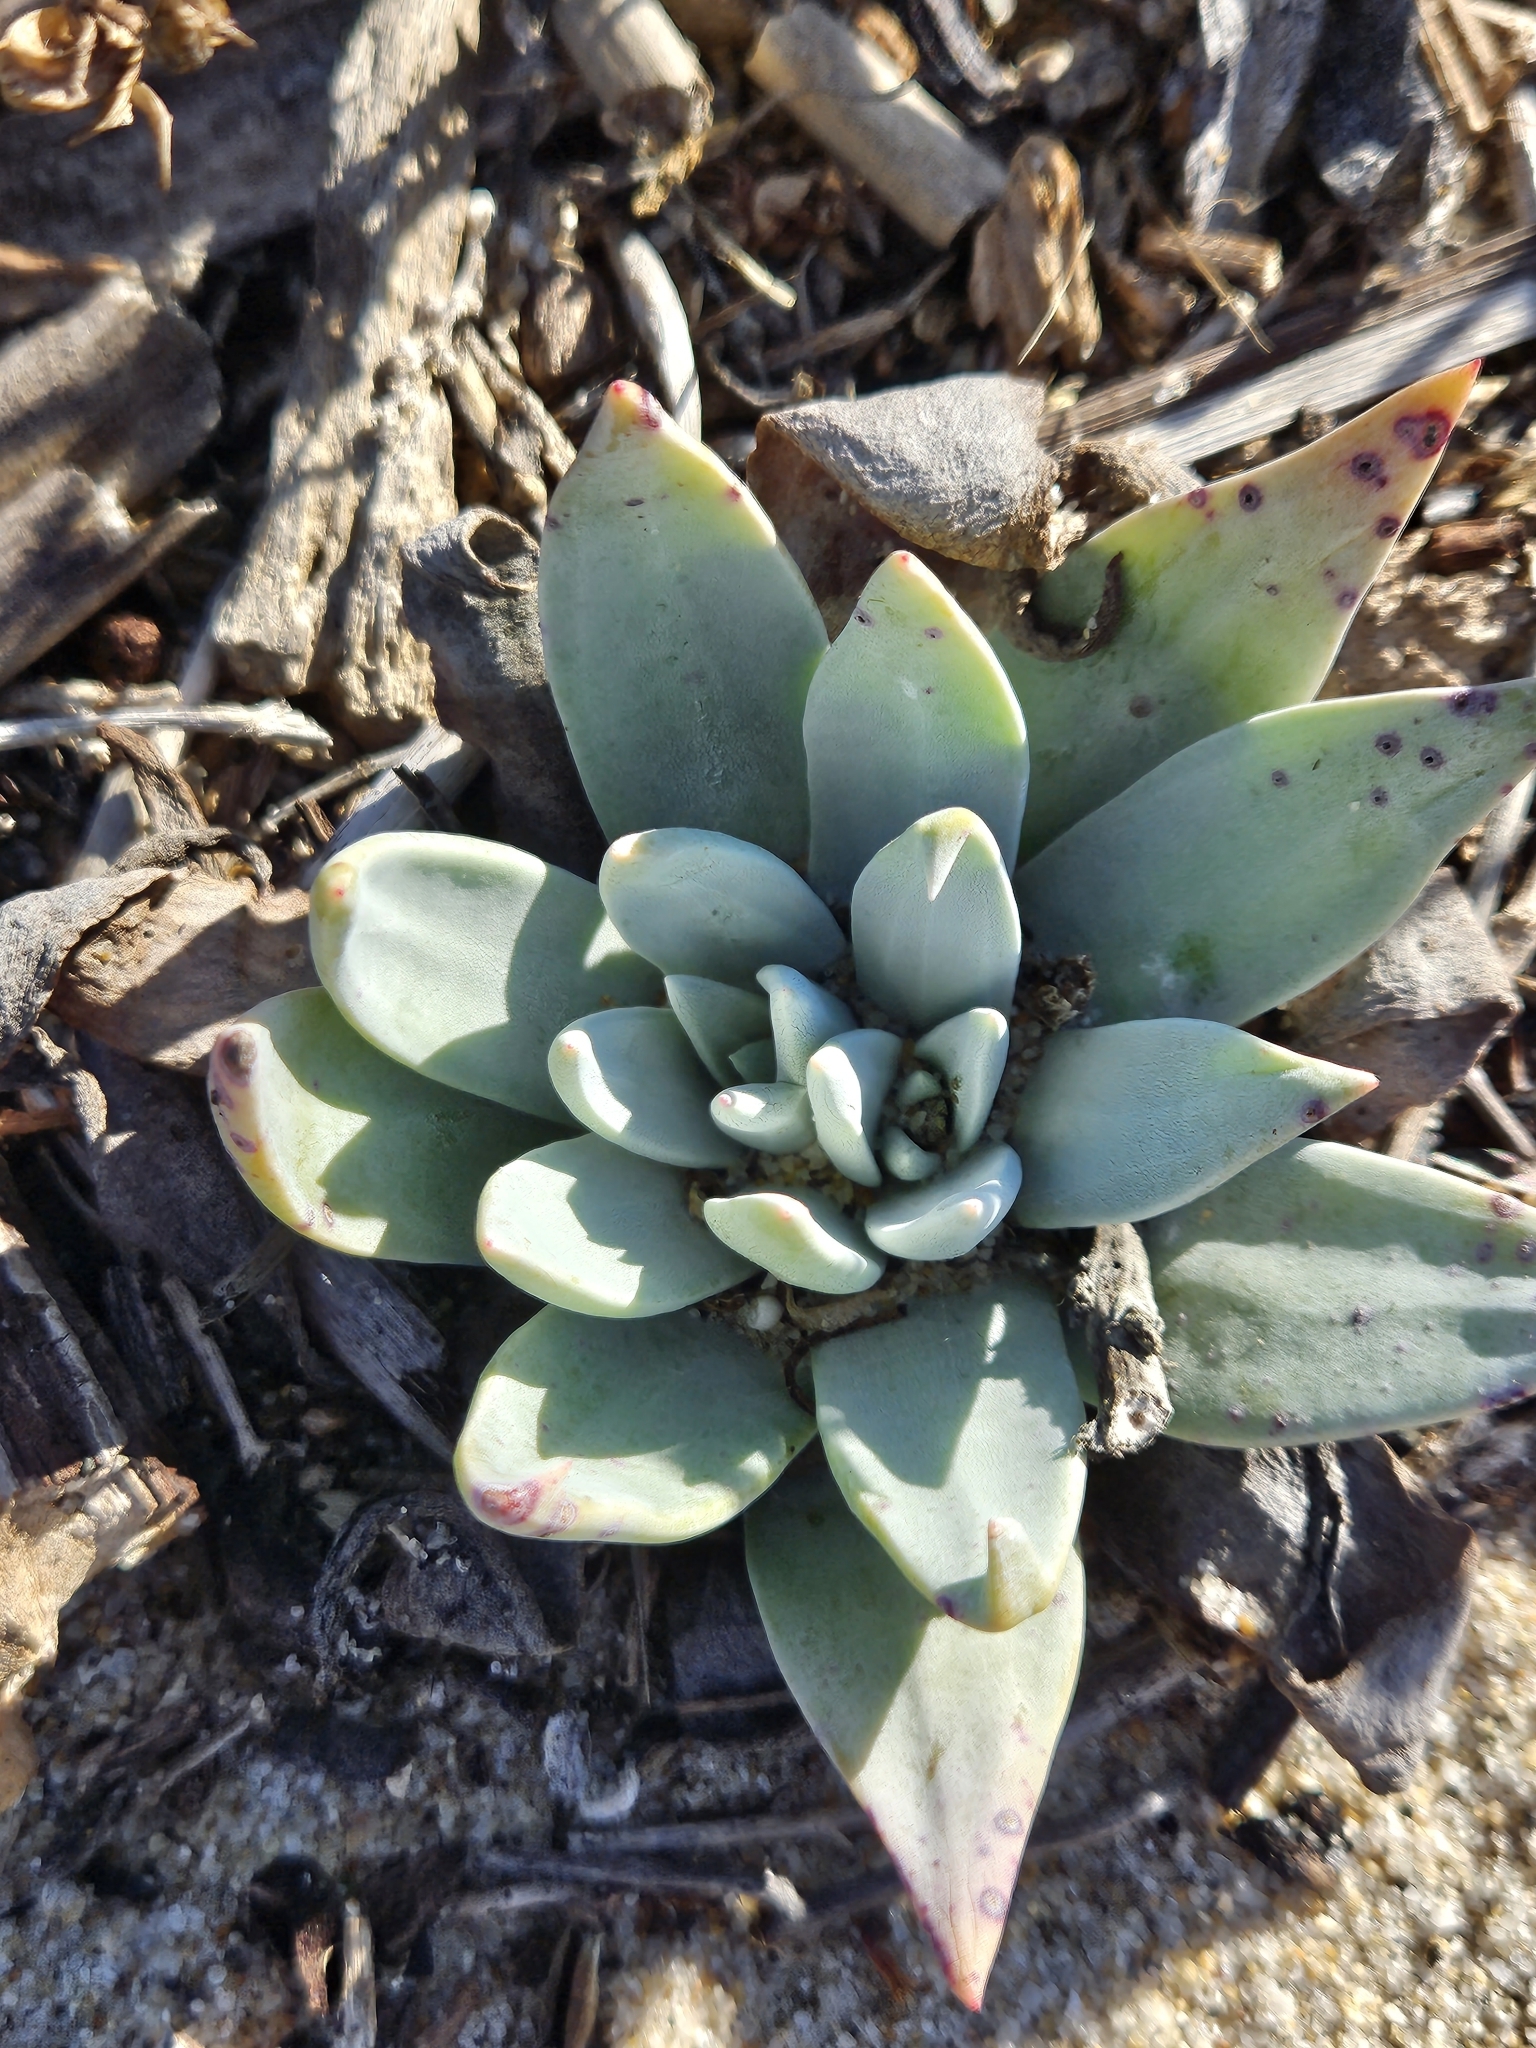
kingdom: Plantae
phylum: Tracheophyta
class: Magnoliopsida
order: Saxifragales
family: Crassulaceae
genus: Dudleya
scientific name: Dudleya caespitosa
